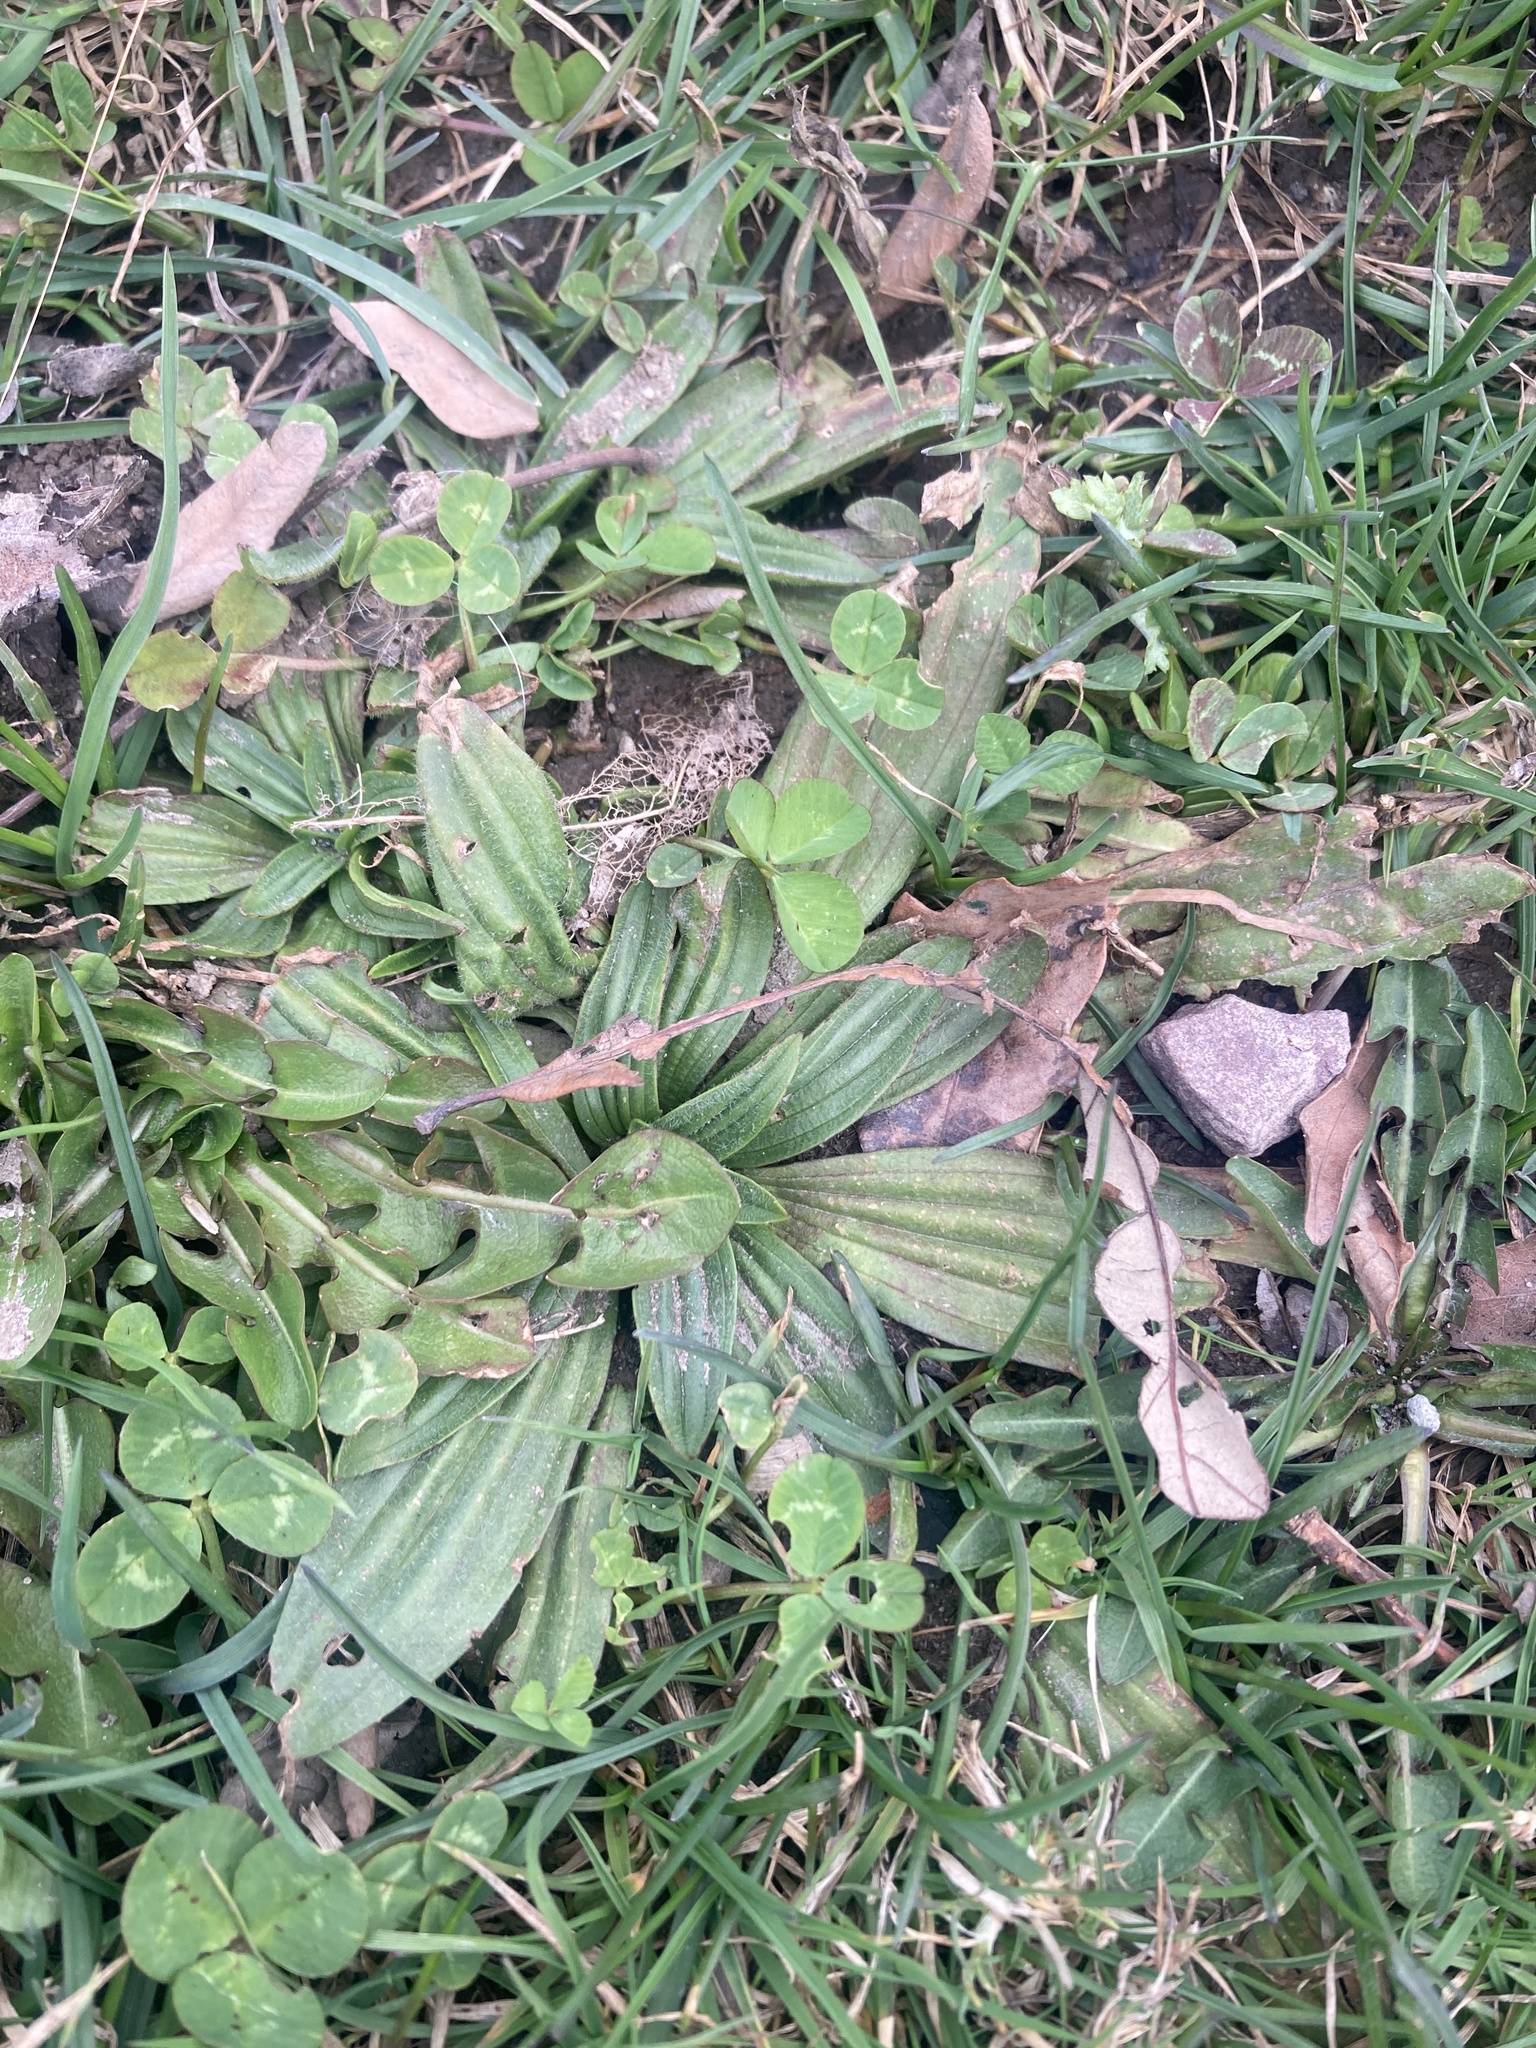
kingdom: Plantae
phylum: Tracheophyta
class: Magnoliopsida
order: Lamiales
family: Plantaginaceae
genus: Plantago
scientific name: Plantago lanceolata
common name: Ribwort plantain
